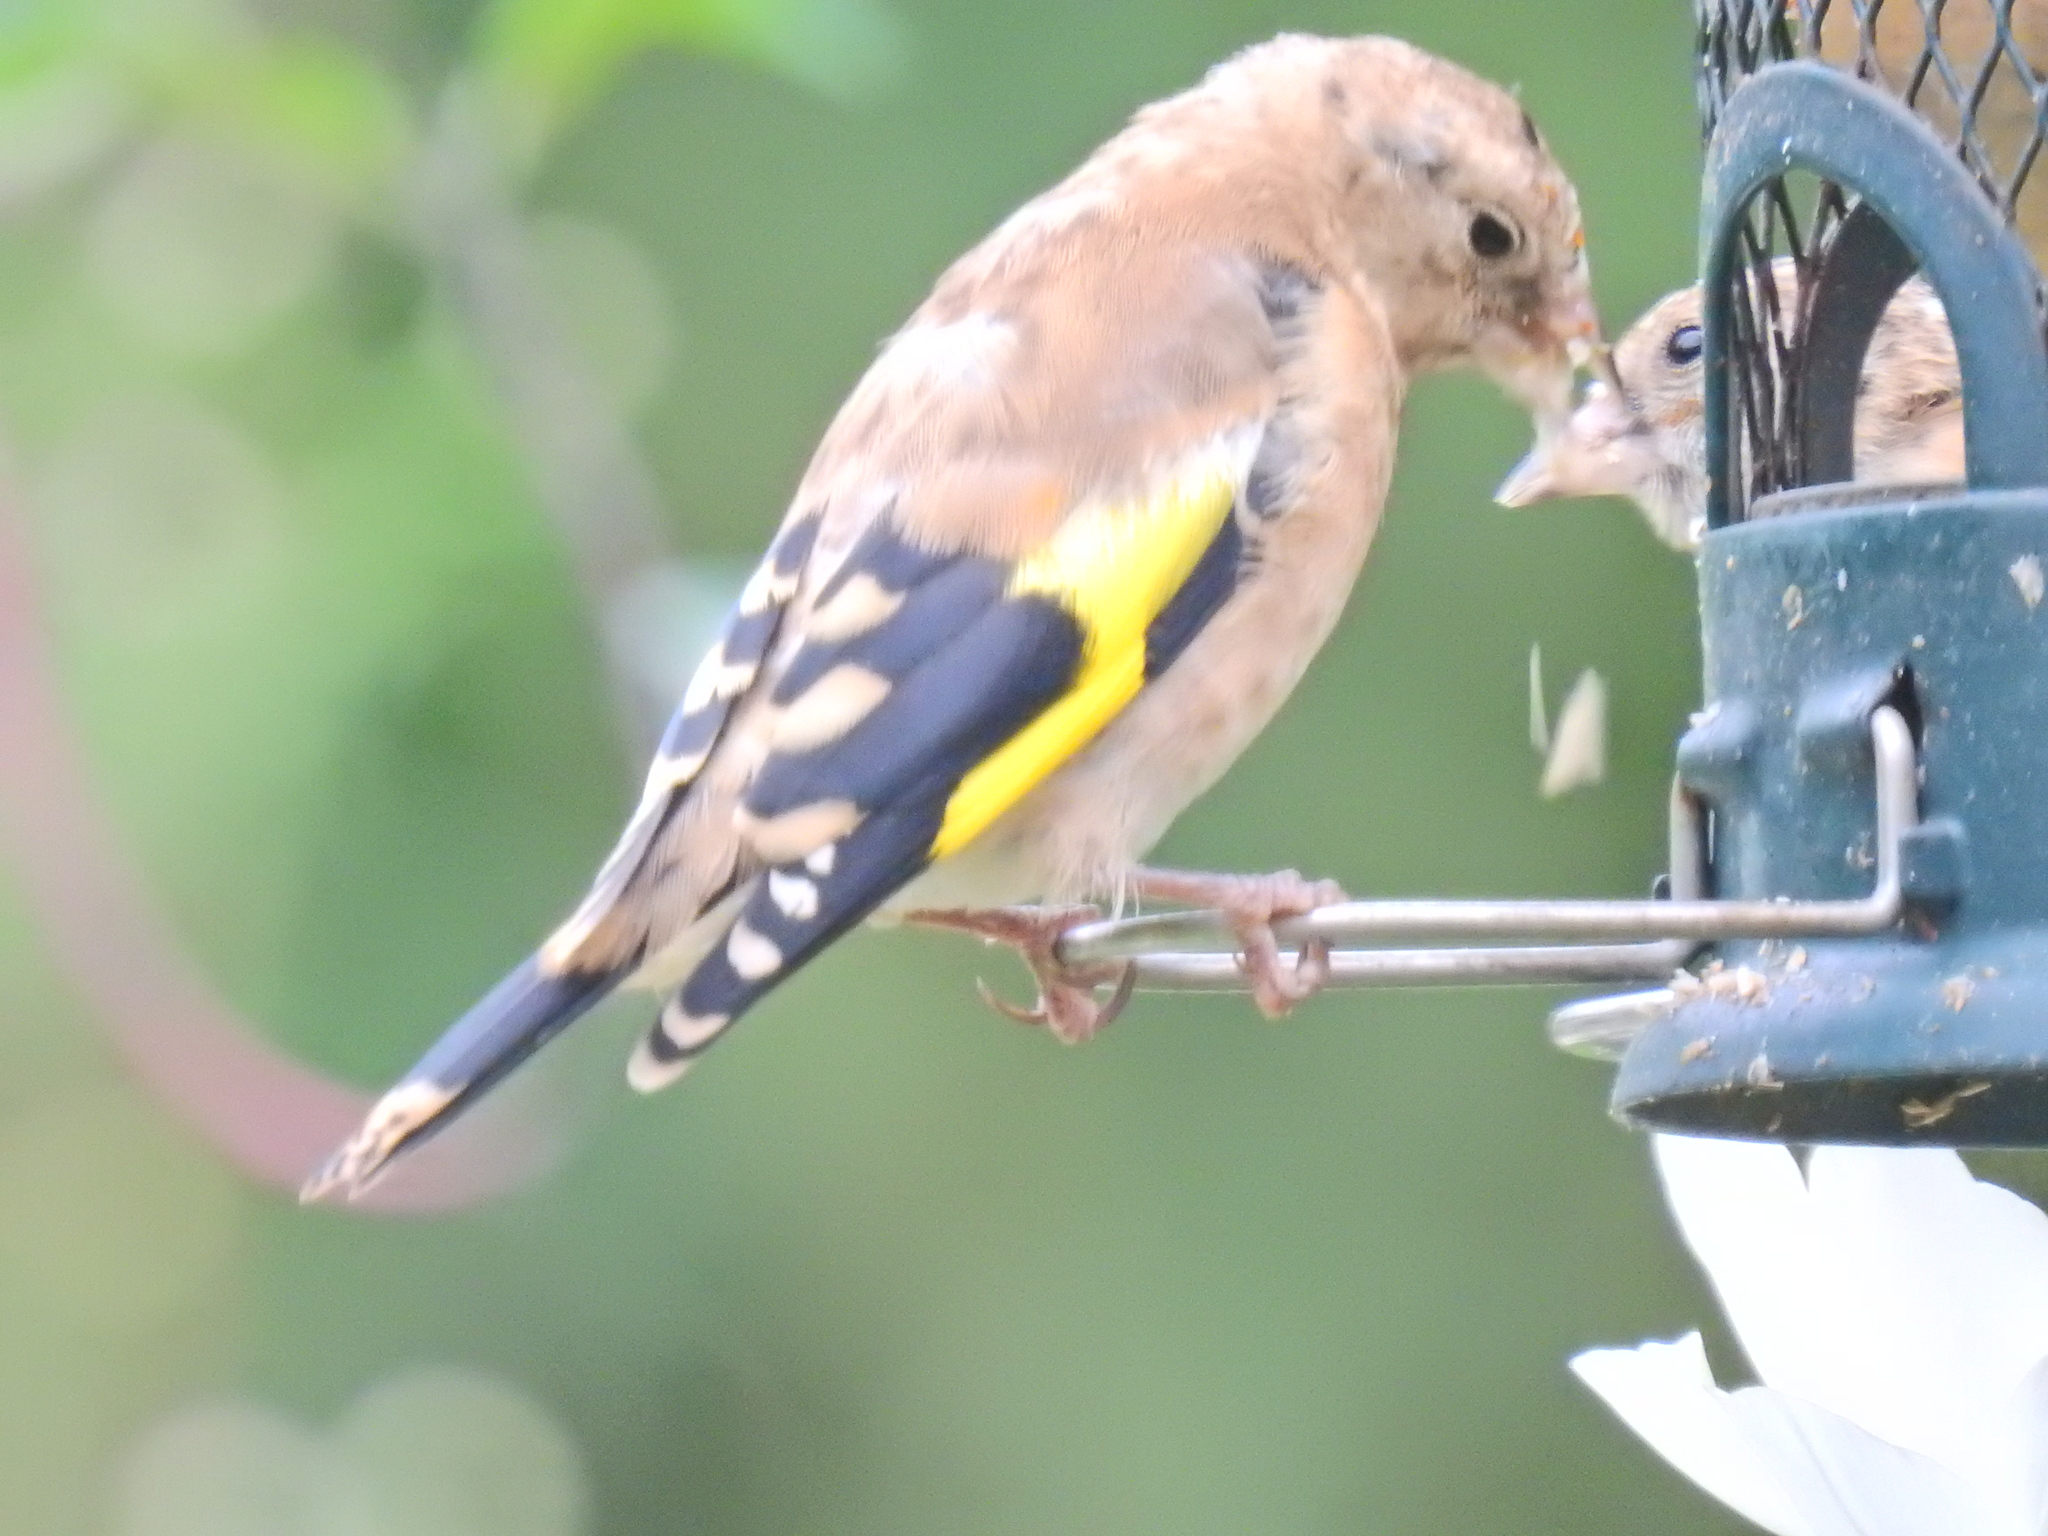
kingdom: Animalia
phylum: Chordata
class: Aves
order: Passeriformes
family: Fringillidae
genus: Carduelis
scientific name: Carduelis carduelis
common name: European goldfinch
